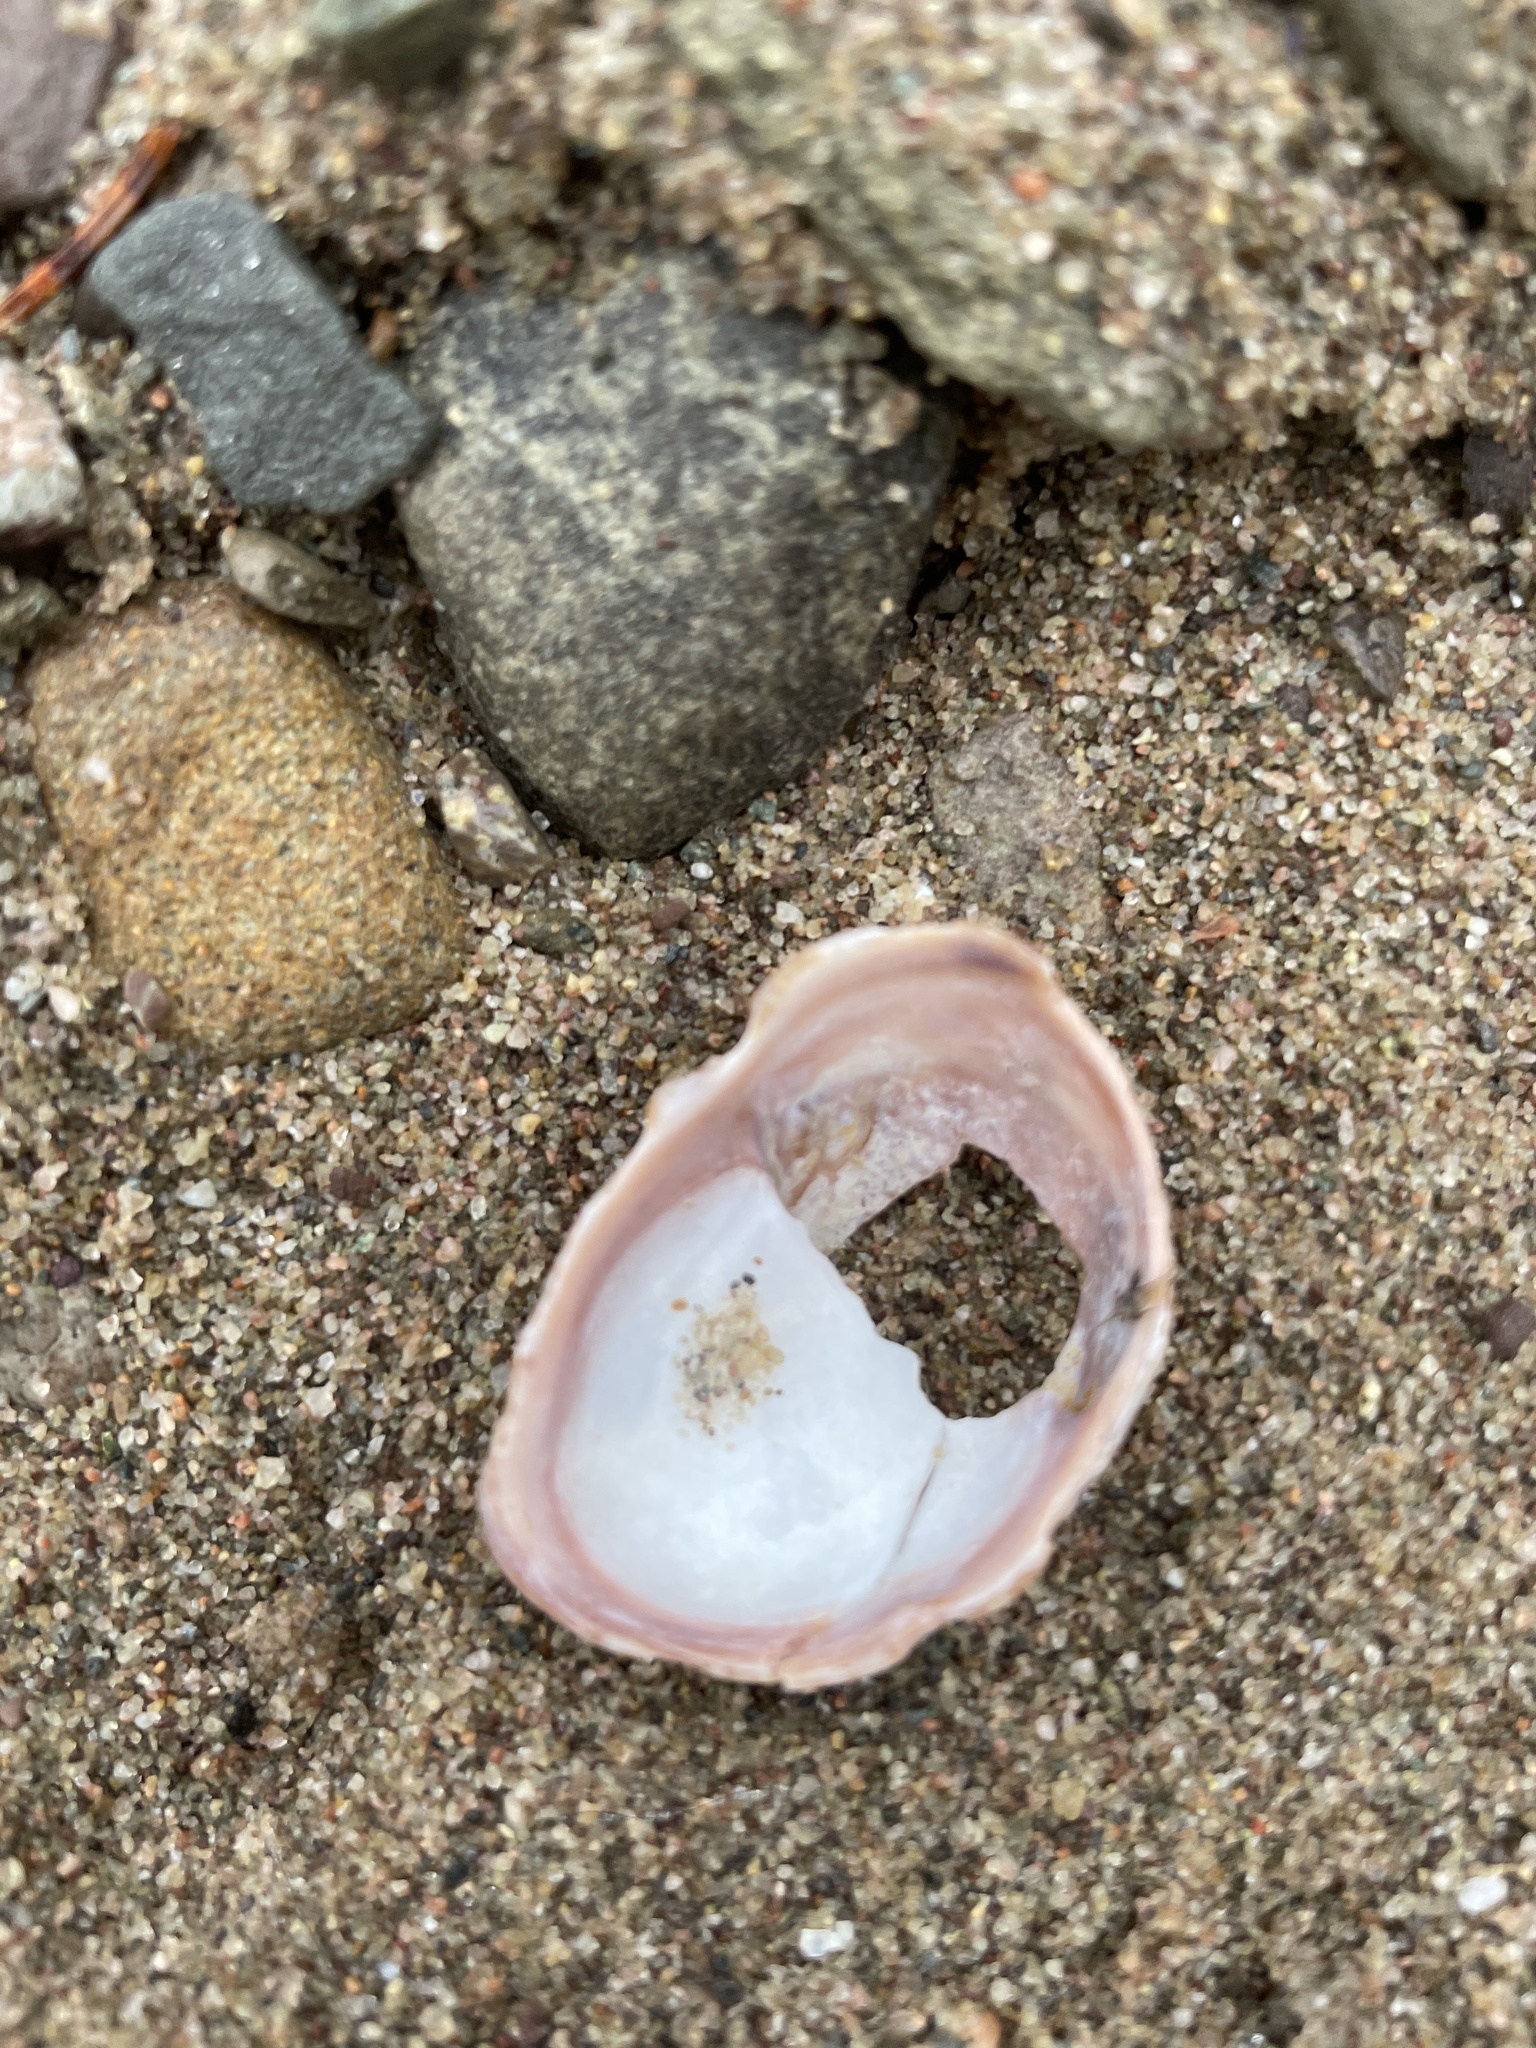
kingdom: Animalia
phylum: Mollusca
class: Gastropoda
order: Littorinimorpha
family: Calyptraeidae
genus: Crepidula
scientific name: Crepidula fornicata
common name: Slipper limpet
